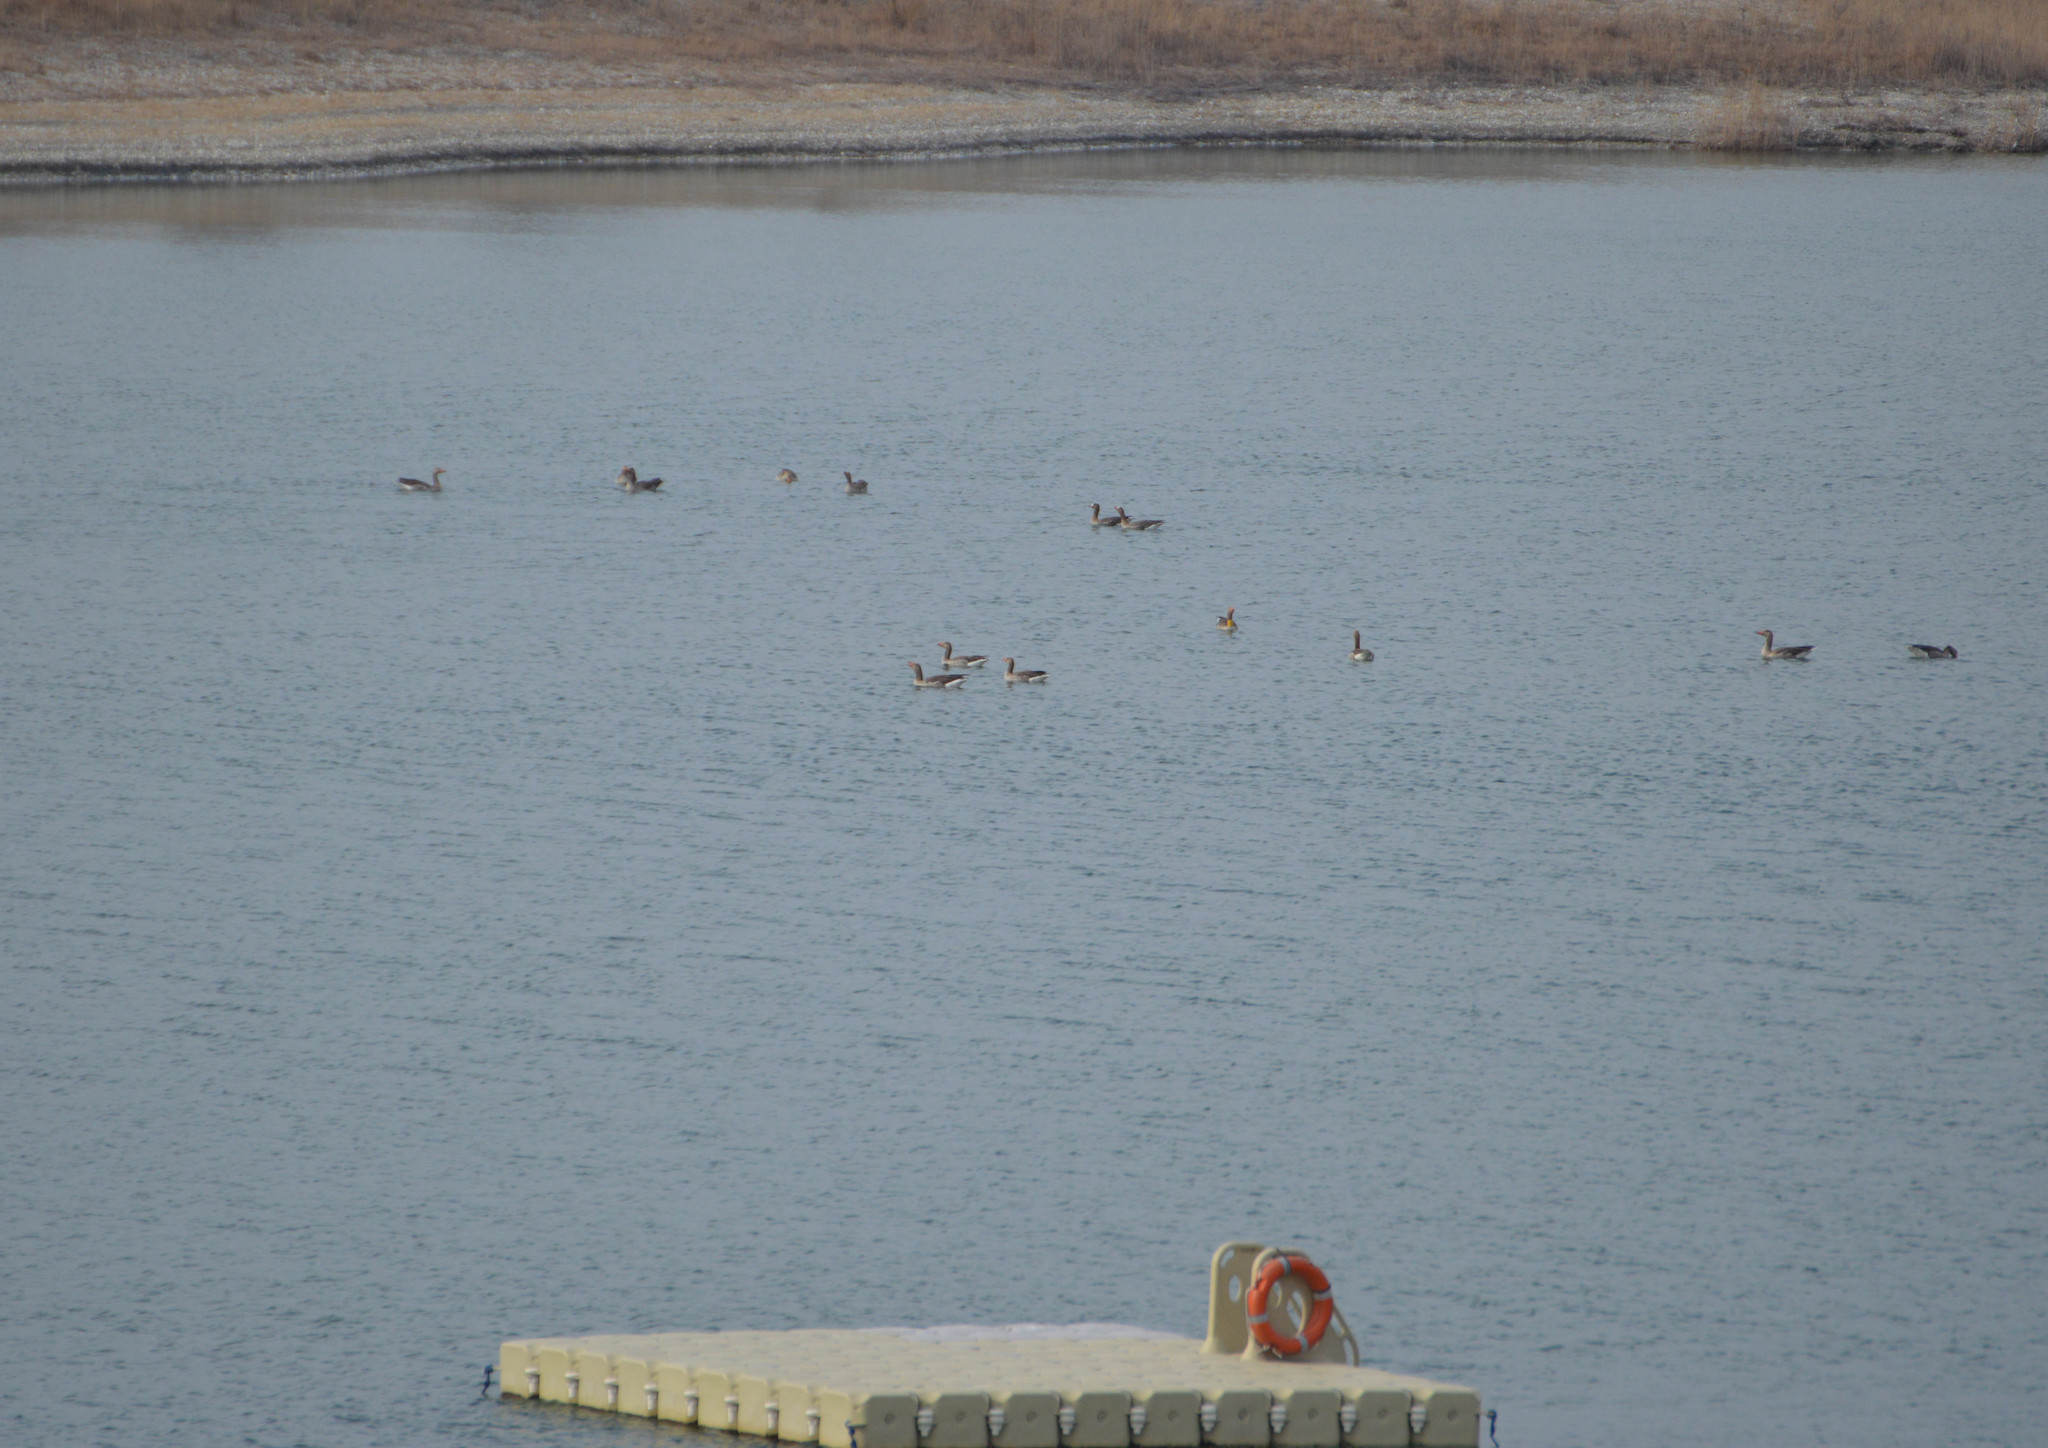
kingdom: Animalia
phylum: Chordata
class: Aves
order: Anseriformes
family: Anatidae
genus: Anser
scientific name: Anser anser
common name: Greylag goose
